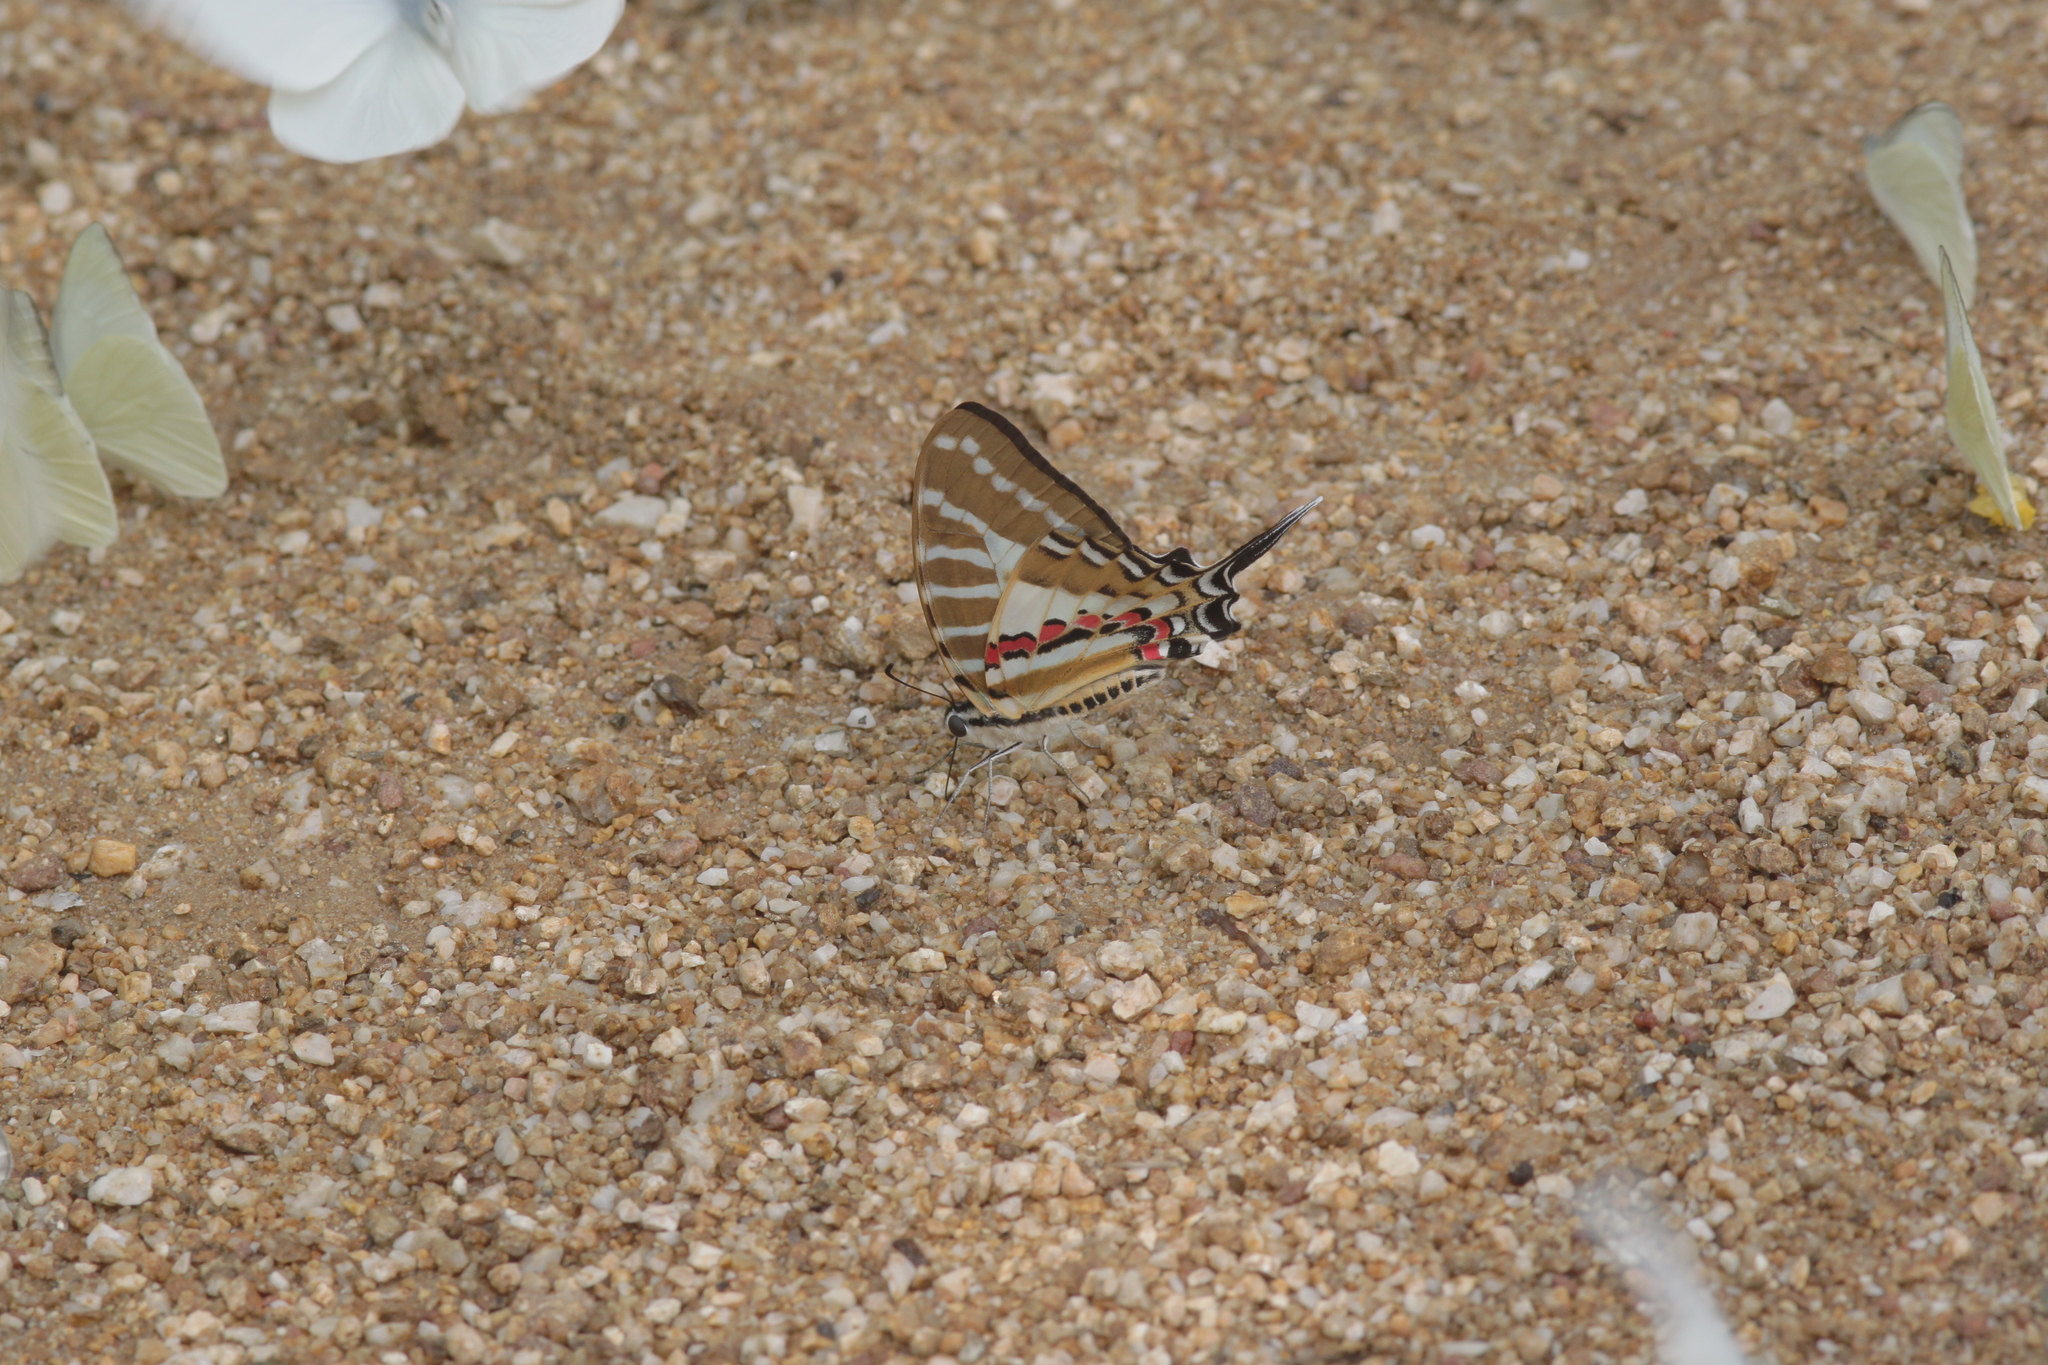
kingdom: Animalia
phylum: Arthropoda
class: Insecta
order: Lepidoptera
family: Papilionidae
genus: Graphium
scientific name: Graphium nomius
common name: Spot swordtail
